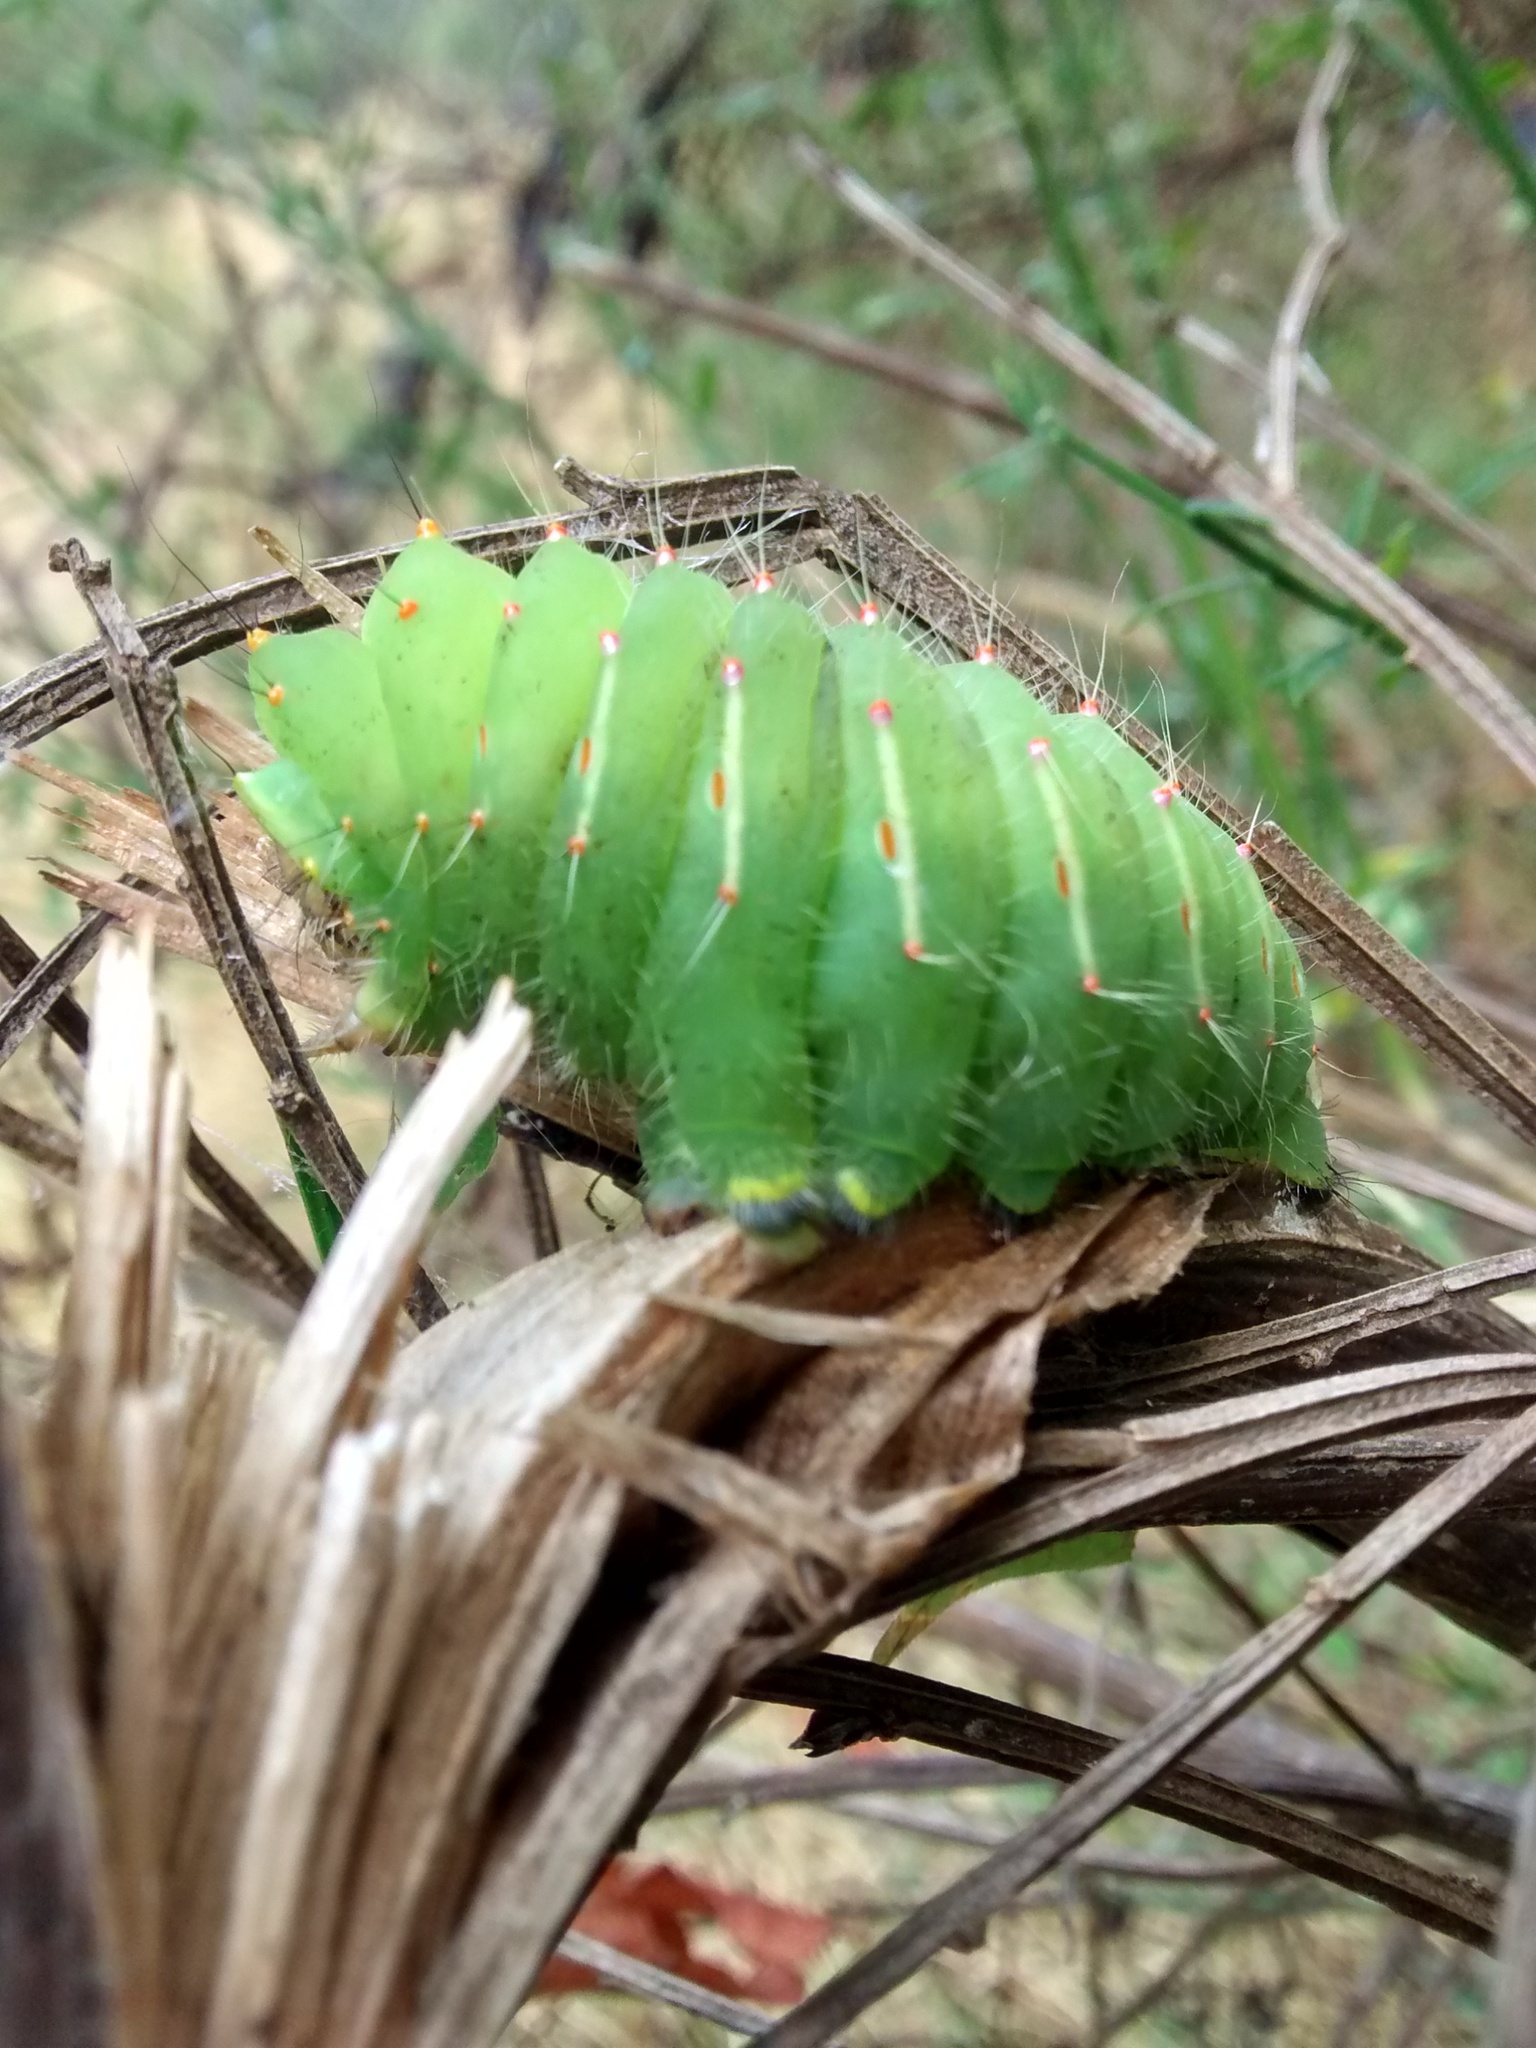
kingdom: Animalia
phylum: Arthropoda
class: Insecta
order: Lepidoptera
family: Saturniidae
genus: Antheraea
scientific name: Antheraea polyphemus
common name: Polyphemus moth
